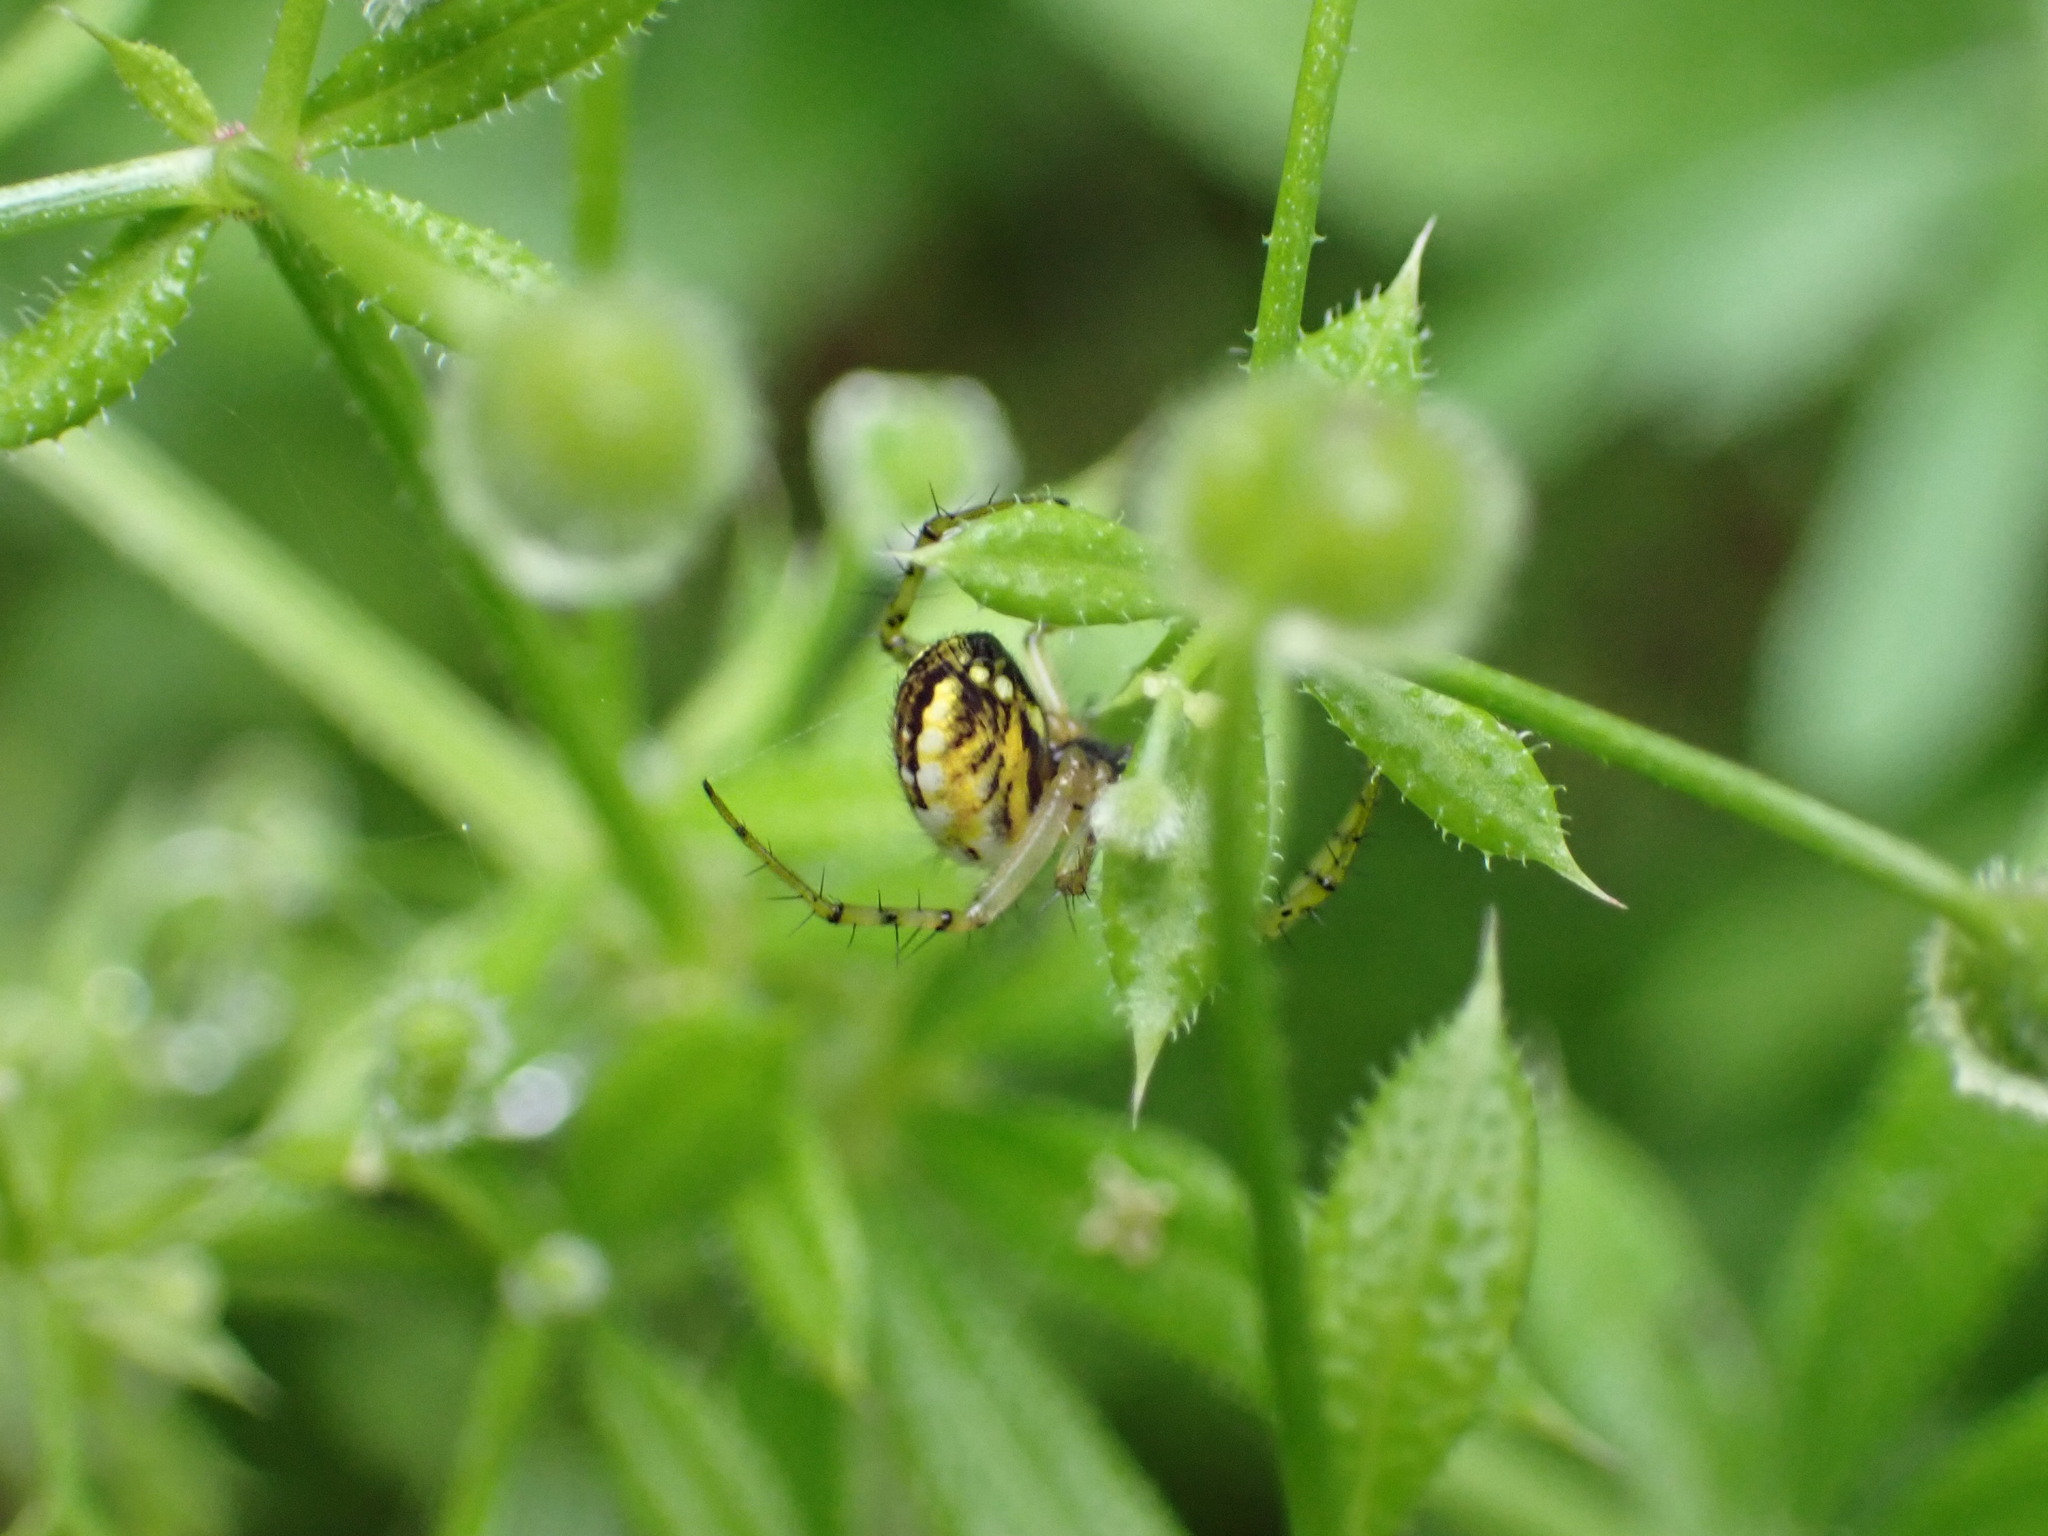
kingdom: Animalia
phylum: Arthropoda
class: Arachnida
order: Araneae
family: Araneidae
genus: Mangora
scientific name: Mangora acalypha
